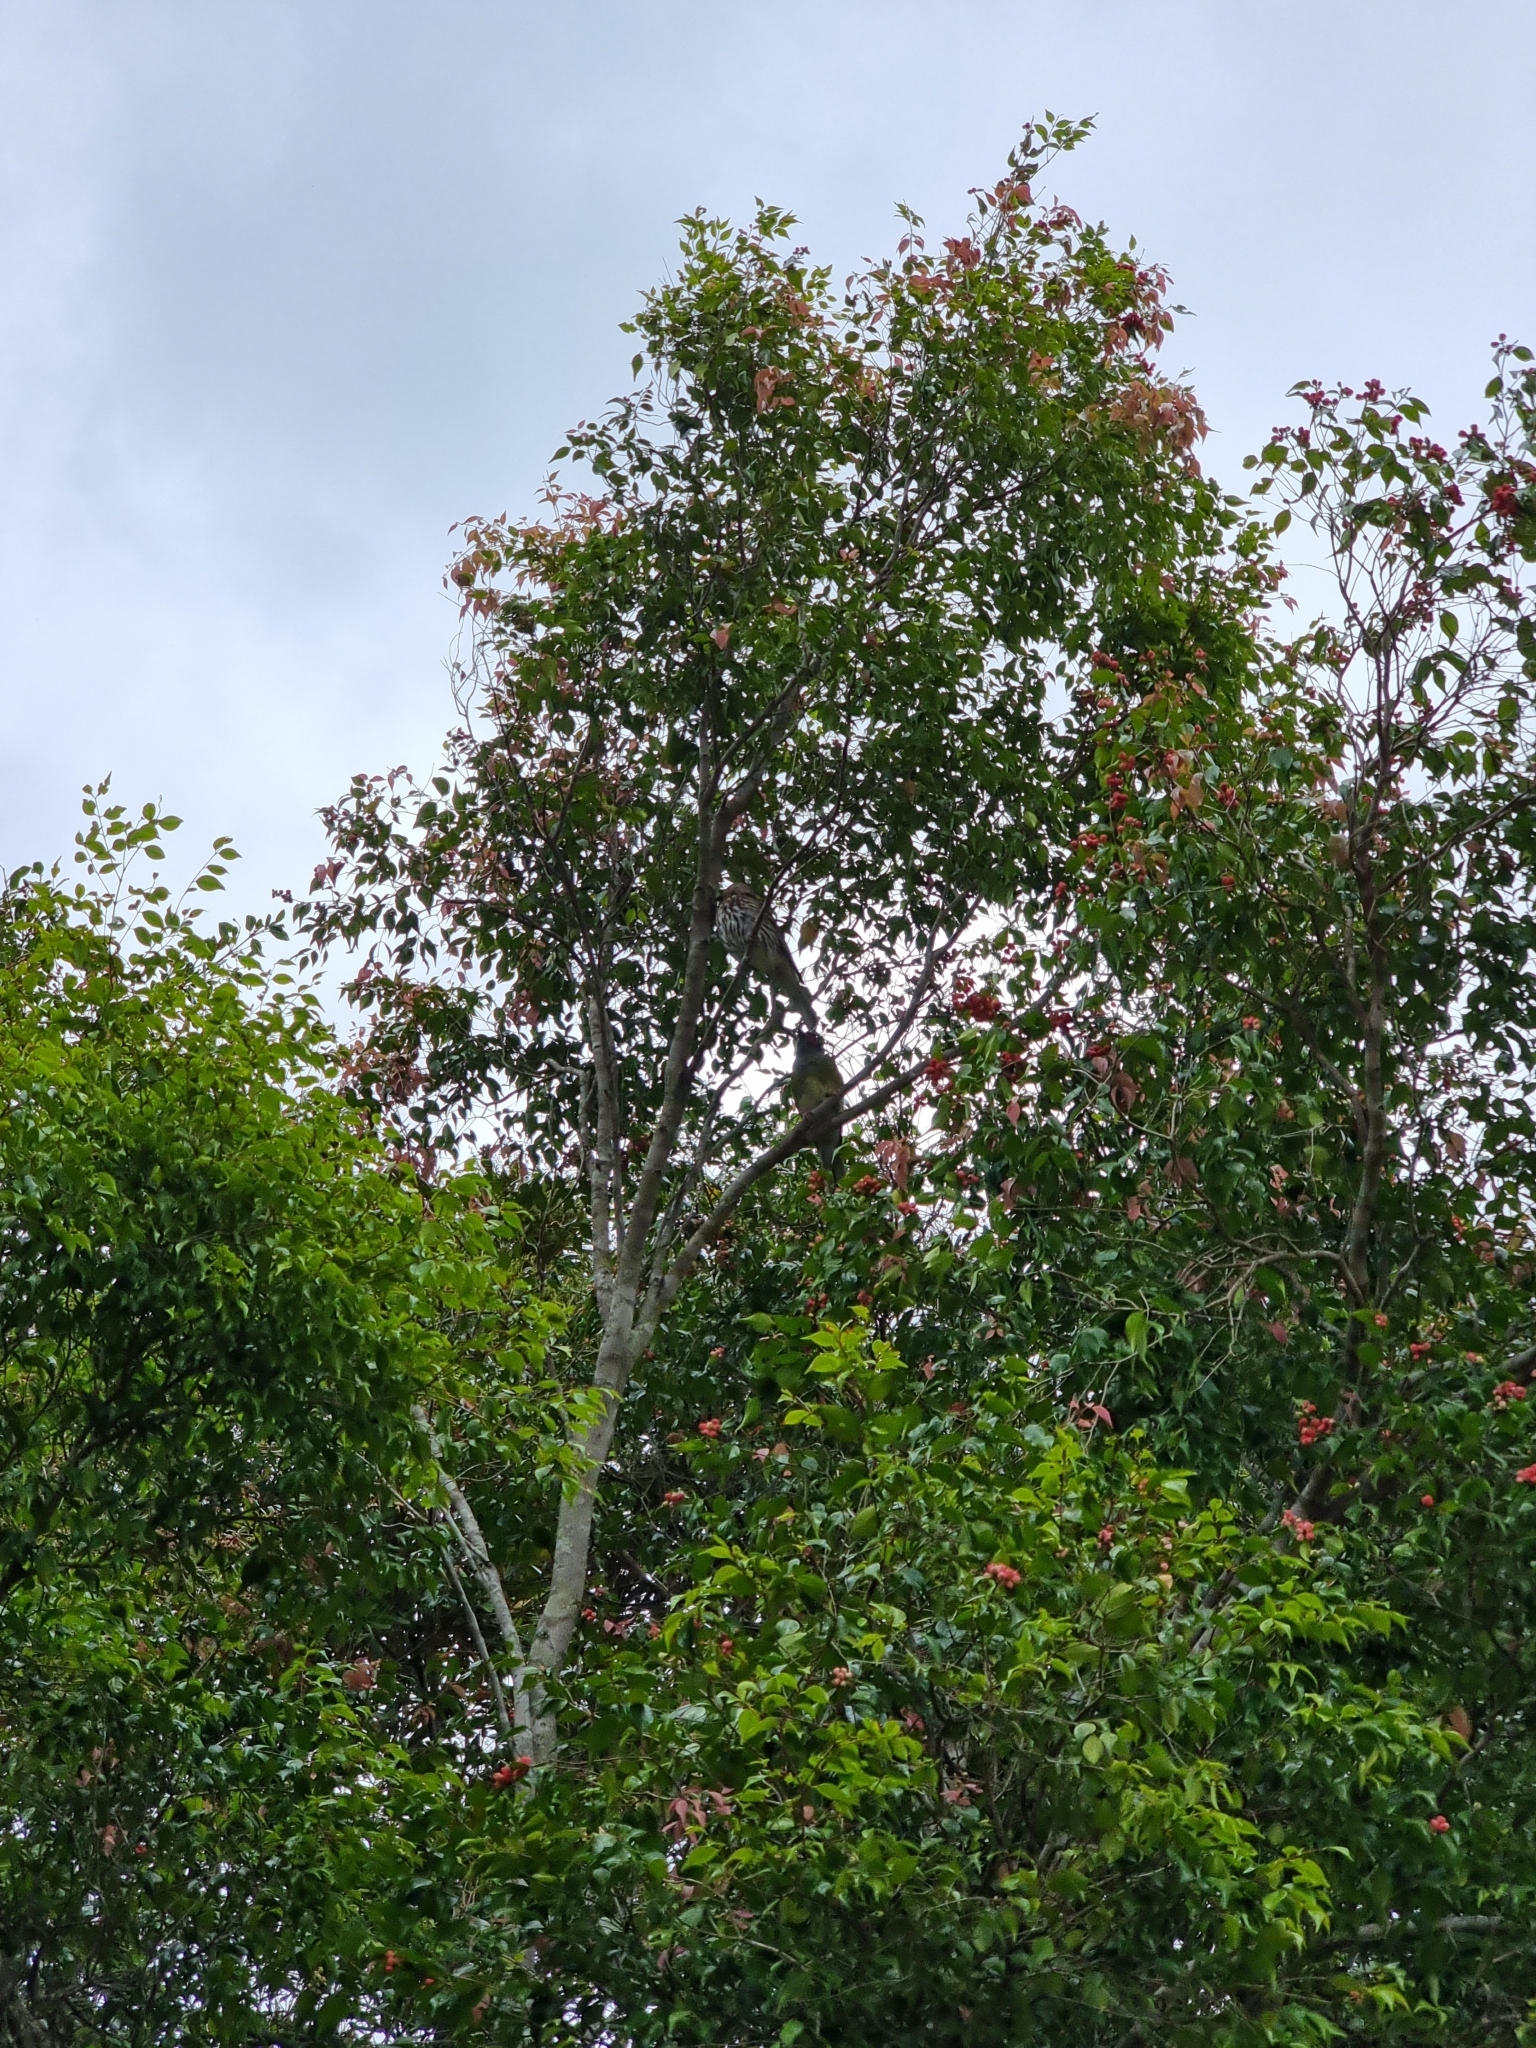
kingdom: Animalia
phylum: Chordata
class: Aves
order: Passeriformes
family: Oriolidae
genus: Sphecotheres
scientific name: Sphecotheres vieilloti
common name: Australasian figbird
